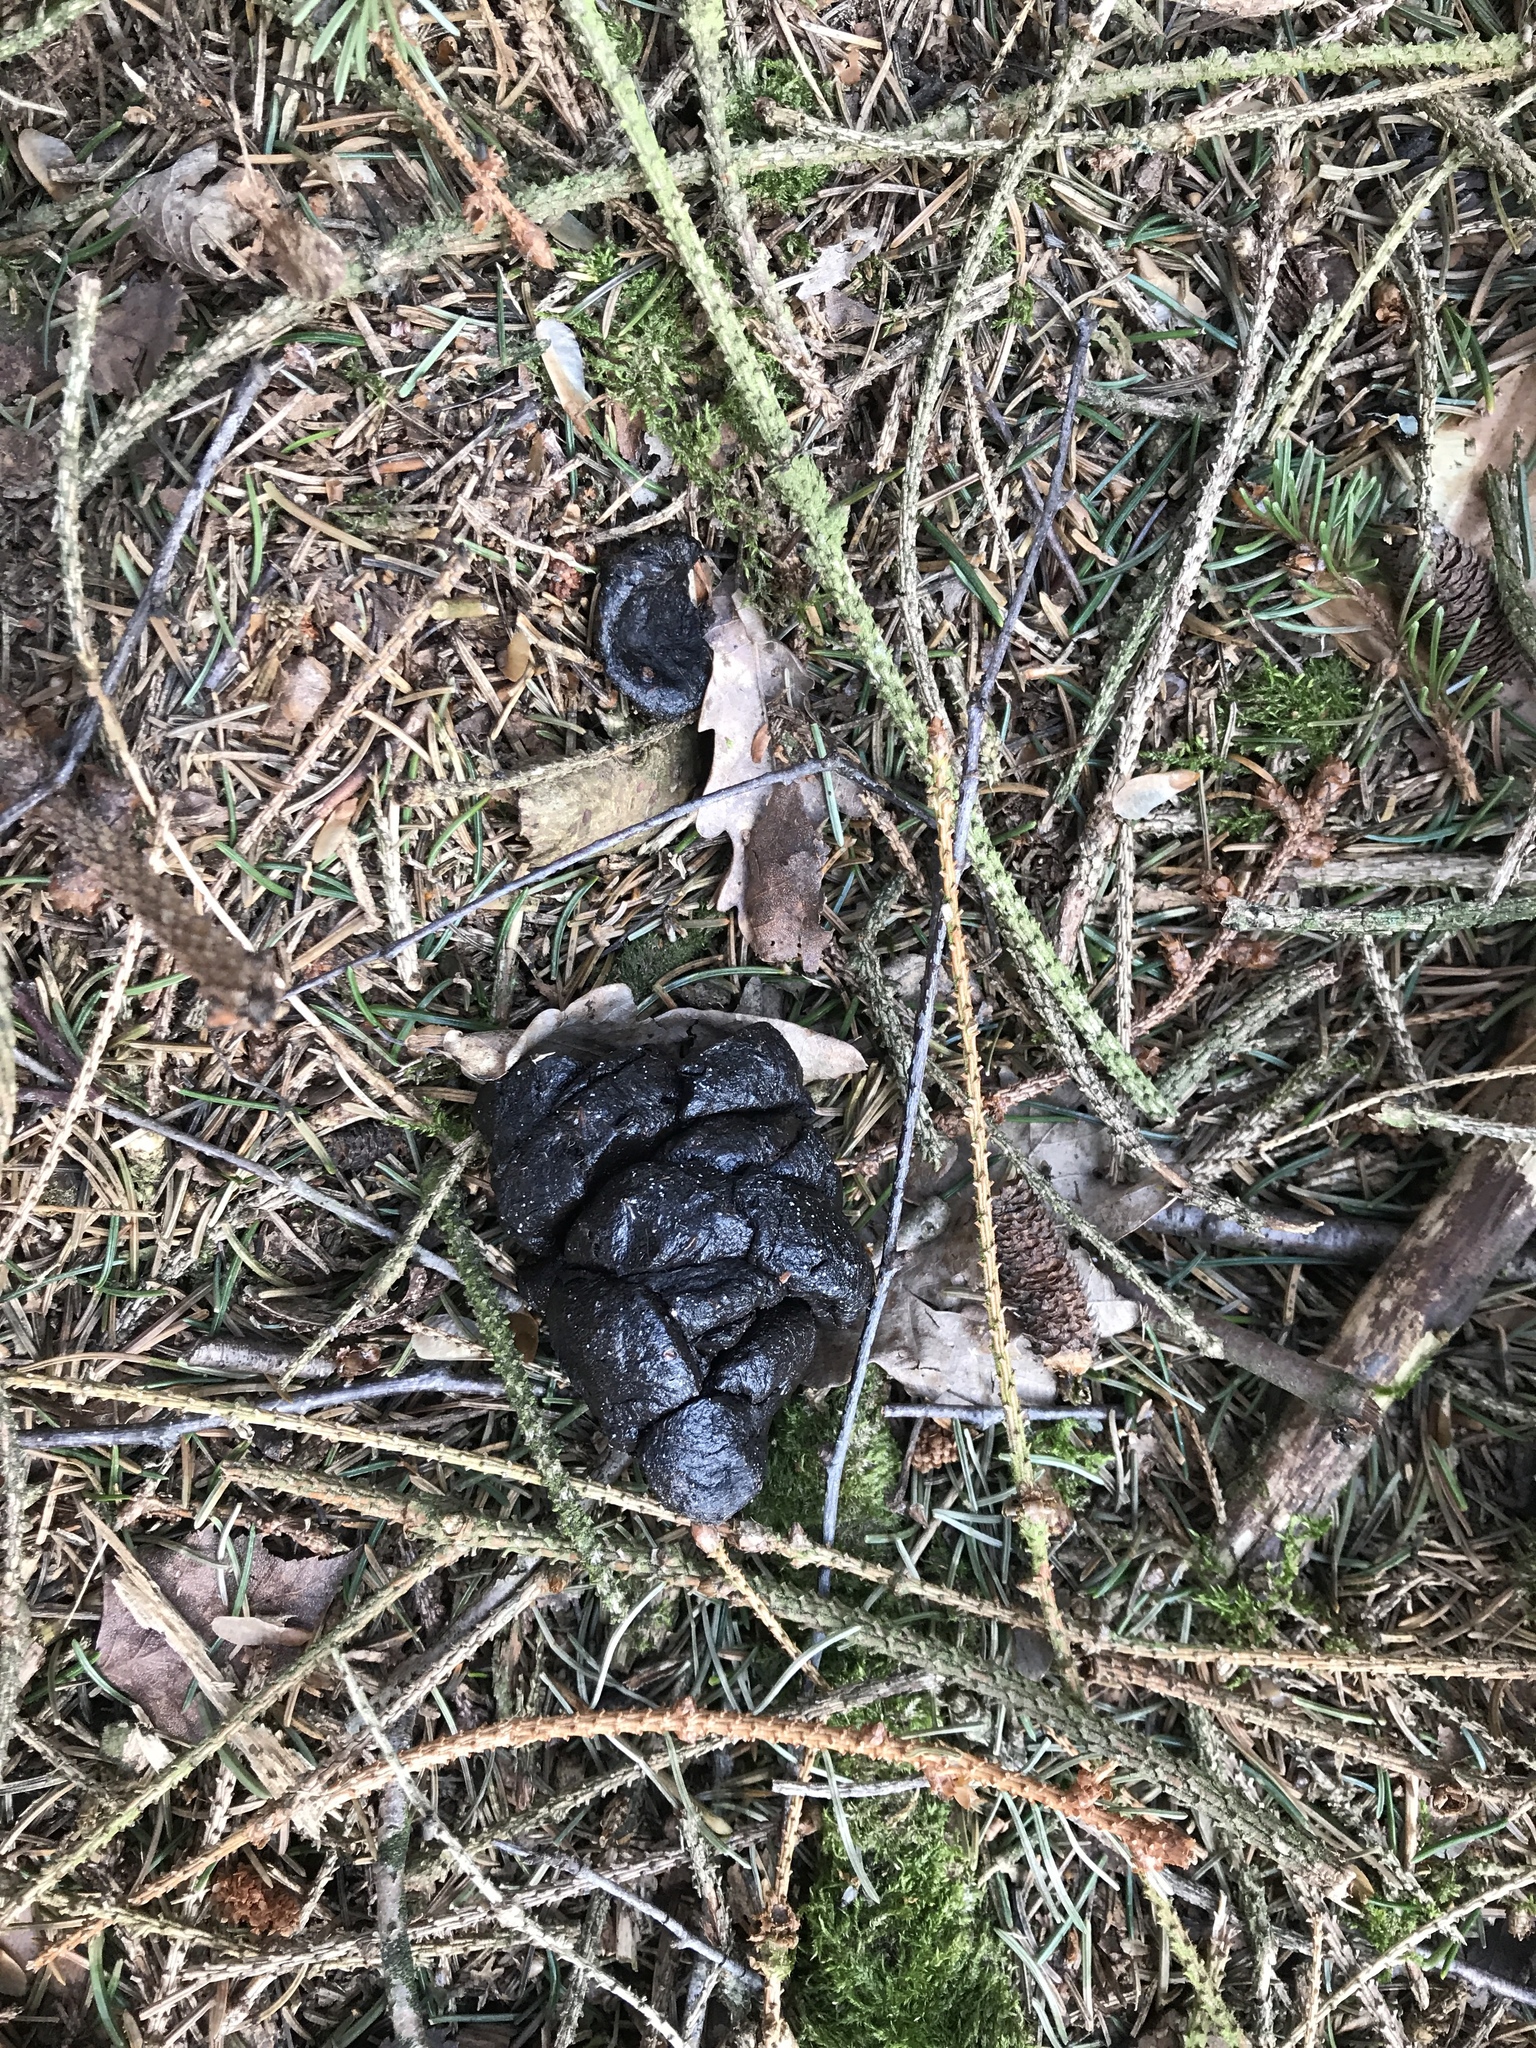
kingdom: Animalia
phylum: Chordata
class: Mammalia
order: Artiodactyla
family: Suidae
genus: Sus
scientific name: Sus scrofa
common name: Wild boar
